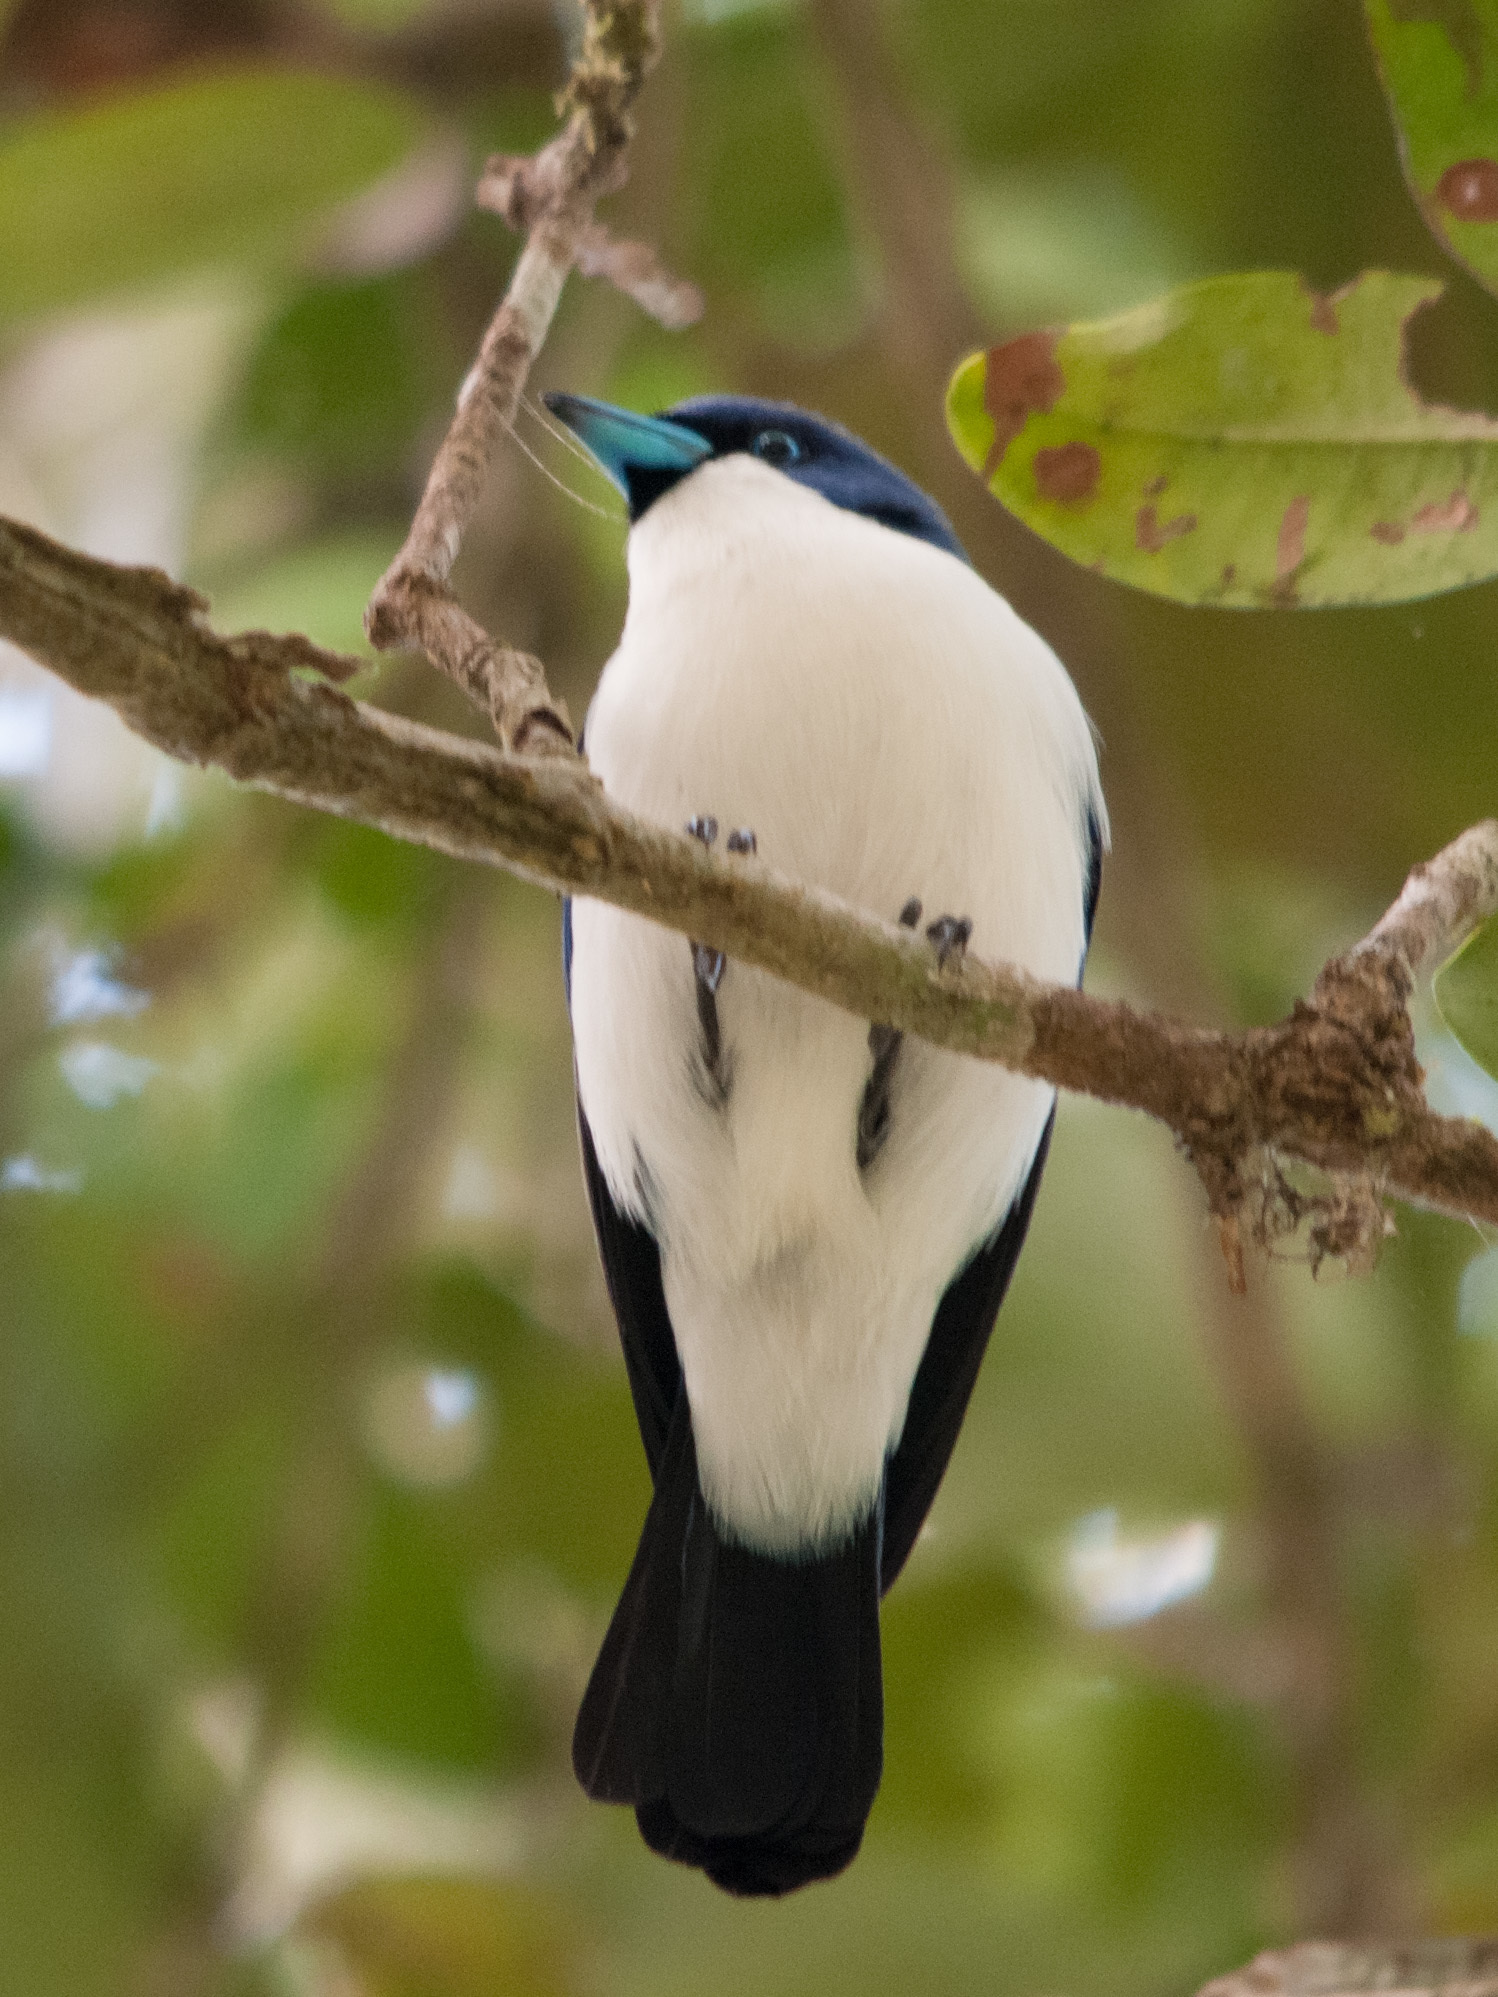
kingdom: Animalia
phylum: Chordata
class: Aves
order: Passeriformes
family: Vangidae
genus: Cyanolanius
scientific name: Cyanolanius madagascarinus
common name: Blue vanga
